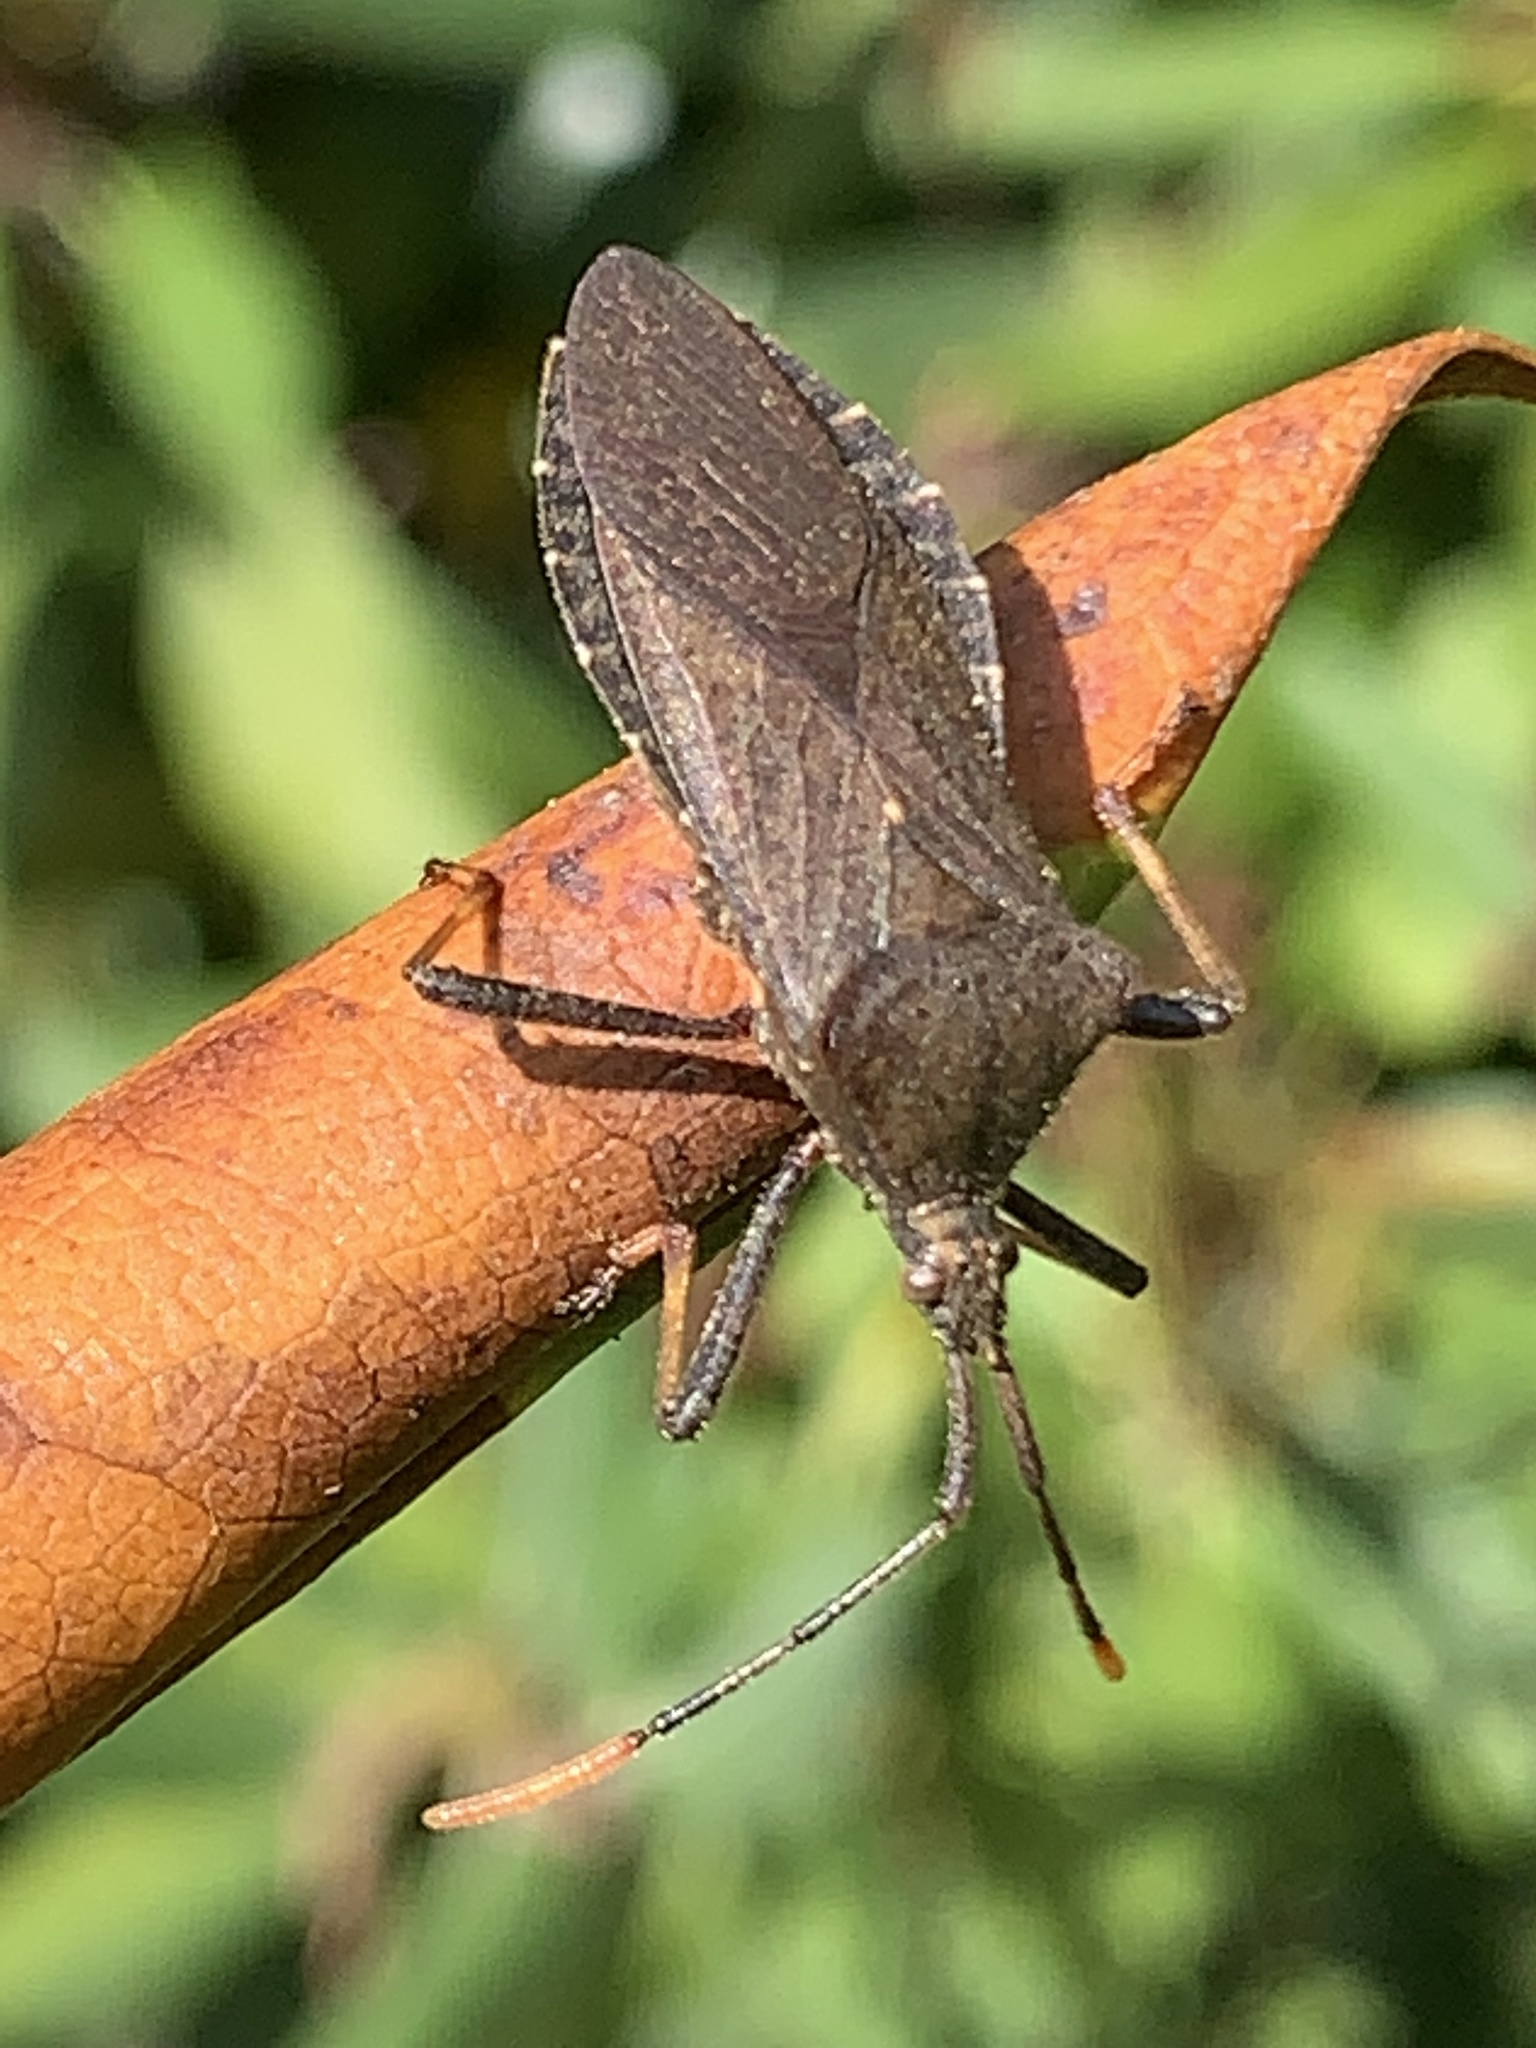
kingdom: Animalia
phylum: Arthropoda
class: Insecta
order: Hemiptera
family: Coreidae
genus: Acanthocephala
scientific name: Acanthocephala terminalis
